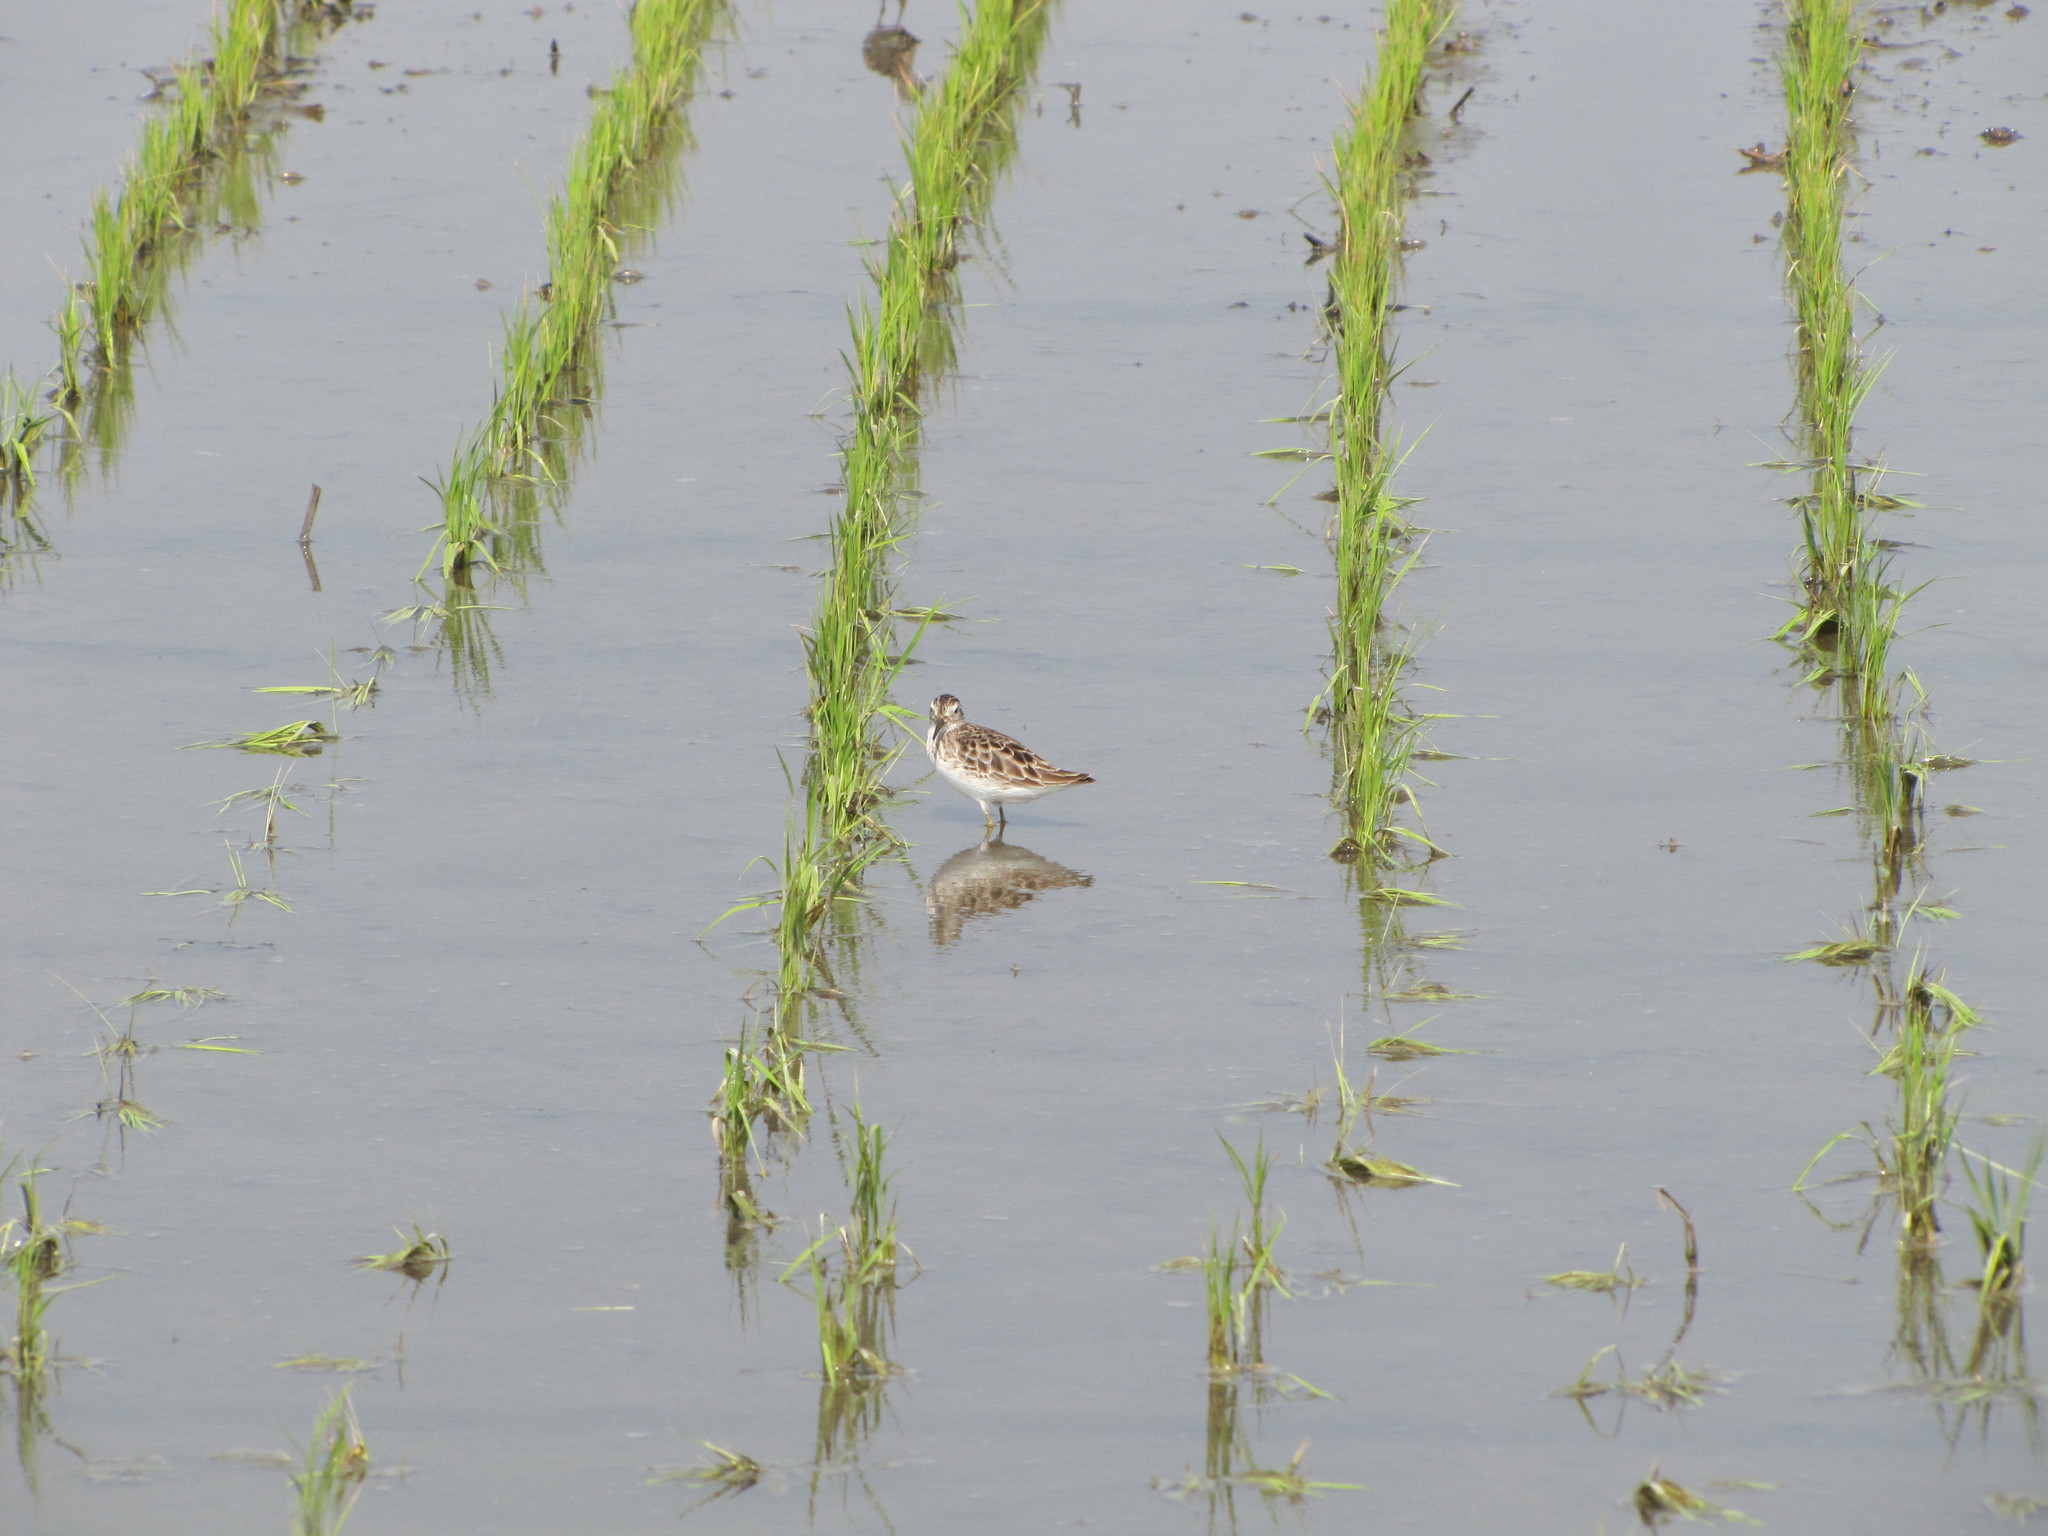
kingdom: Animalia
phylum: Chordata
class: Aves
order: Charadriiformes
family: Scolopacidae
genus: Calidris
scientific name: Calidris subminuta
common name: Long-toed stint
